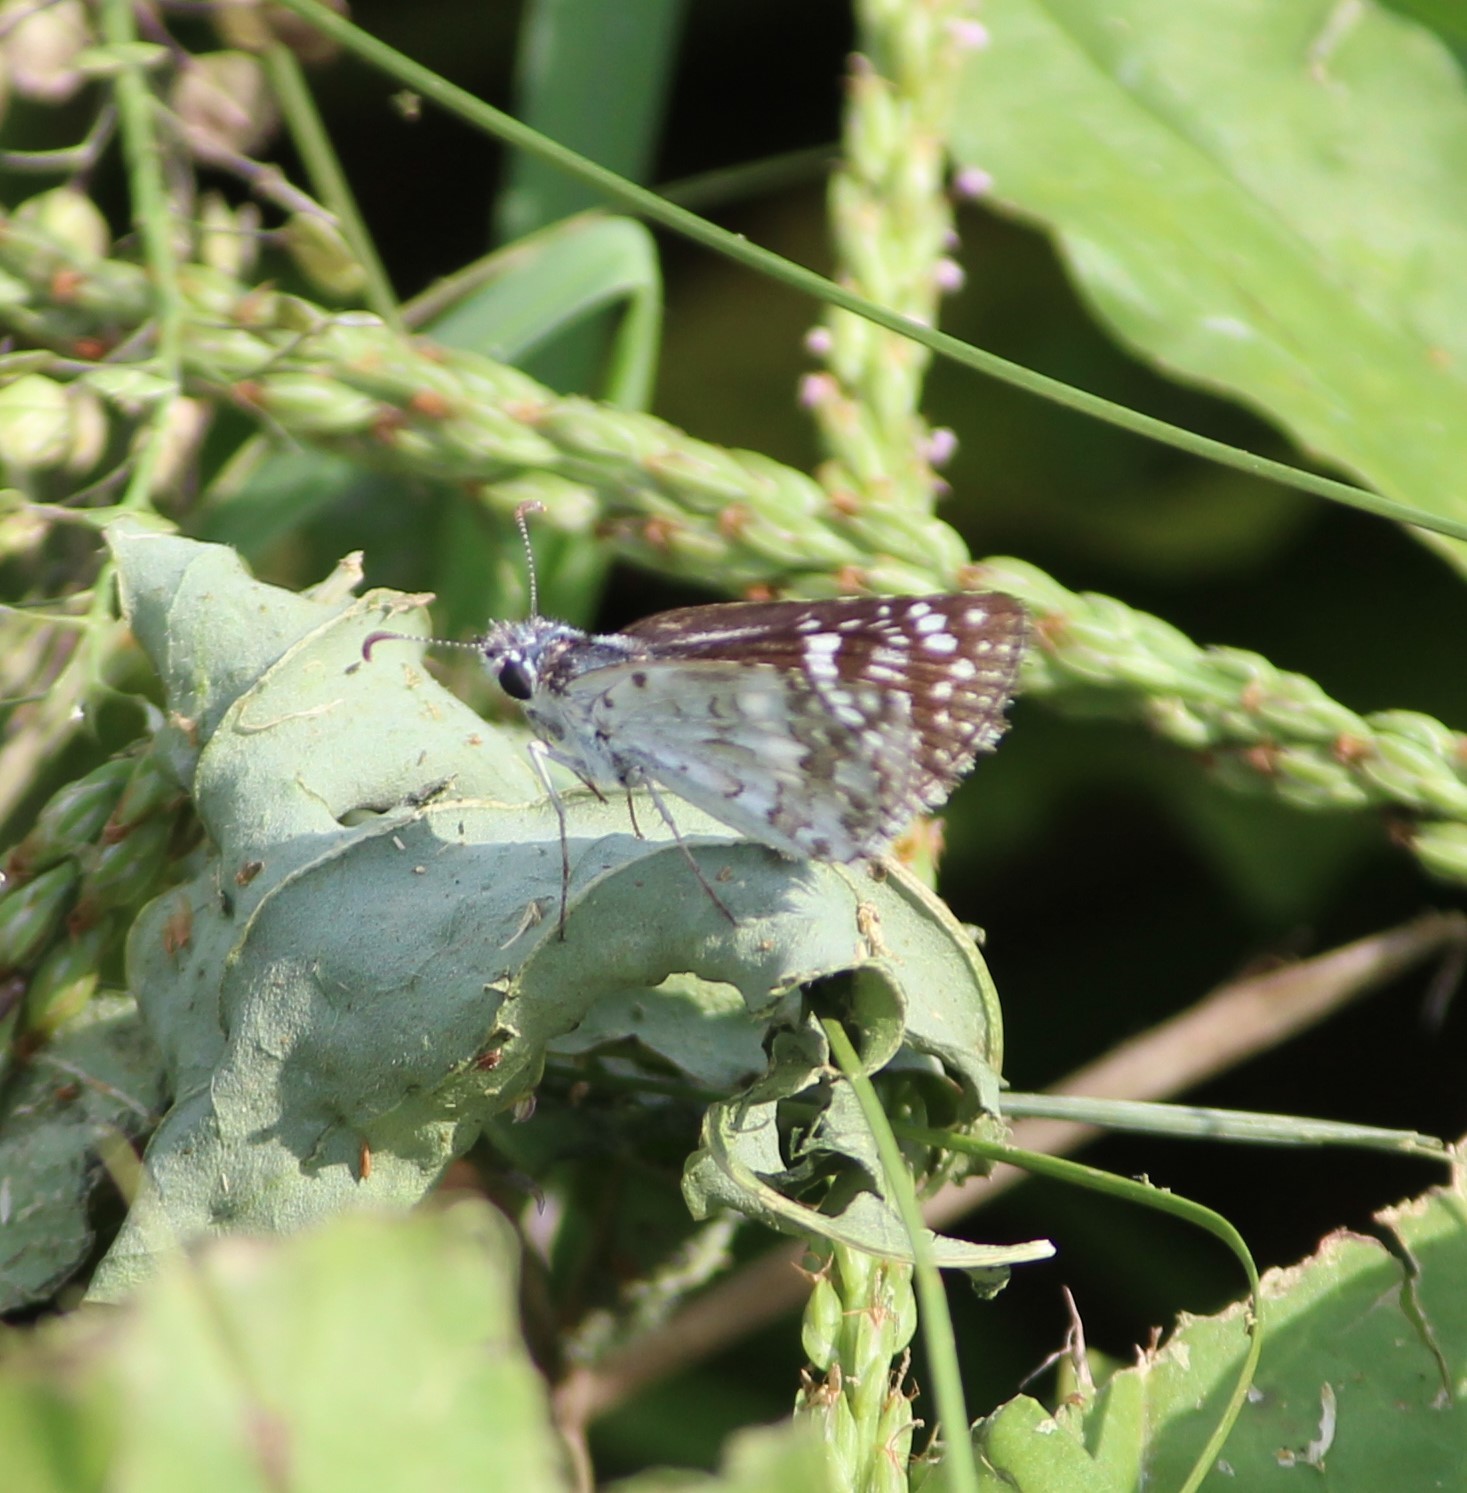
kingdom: Animalia
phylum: Arthropoda
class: Insecta
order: Lepidoptera
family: Hesperiidae
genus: Burnsius
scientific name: Burnsius communis
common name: Common checkered-skipper
